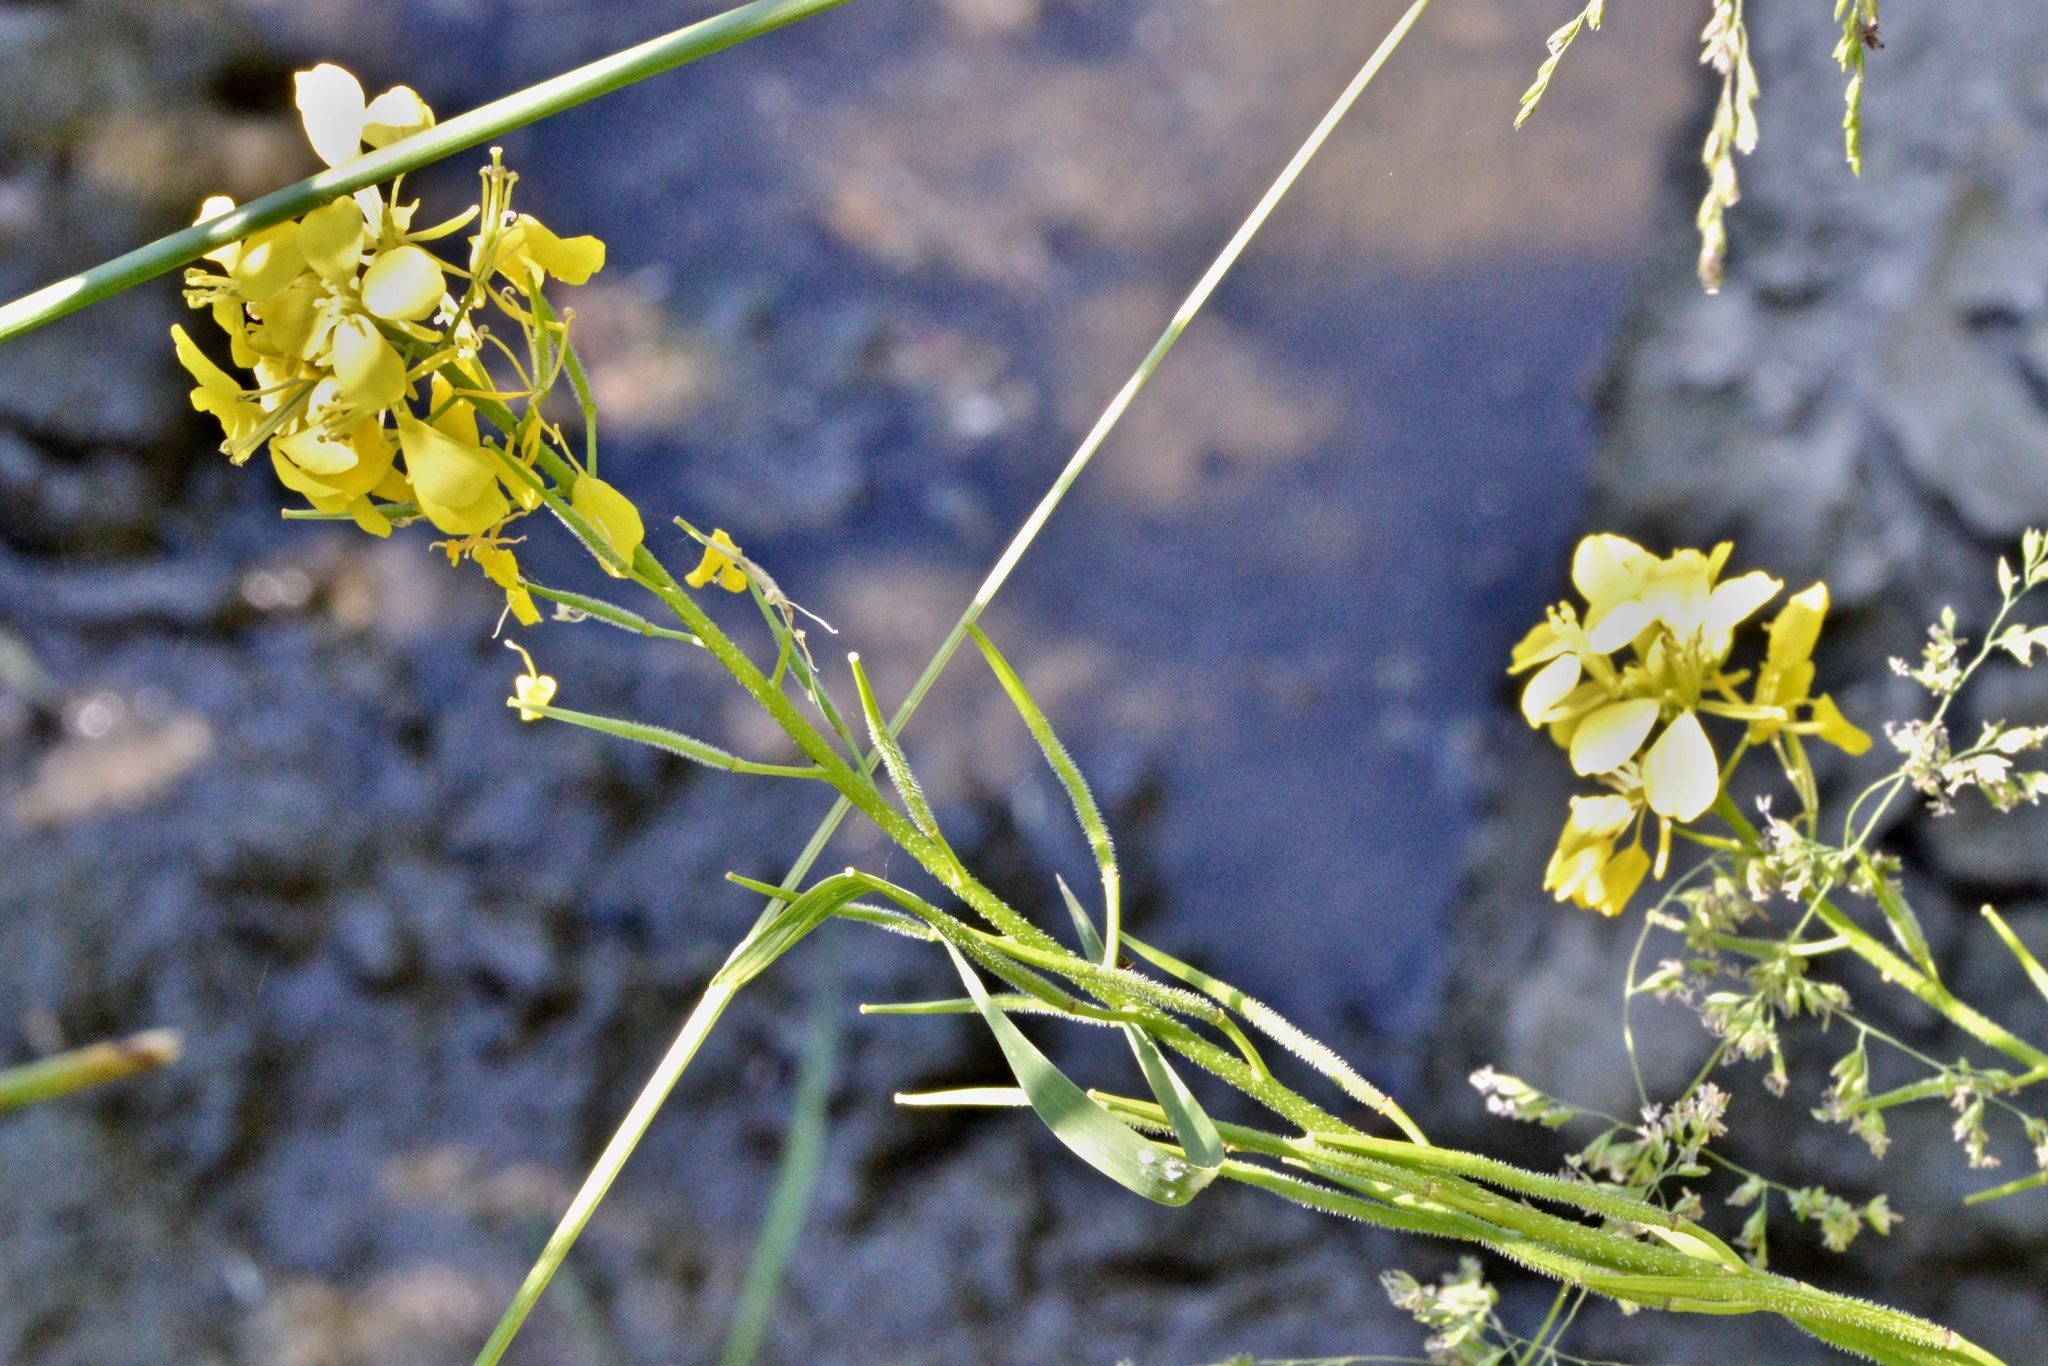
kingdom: Plantae
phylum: Tracheophyta
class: Magnoliopsida
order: Brassicales
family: Brassicaceae
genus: Sinapis
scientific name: Sinapis arvensis
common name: Charlock
